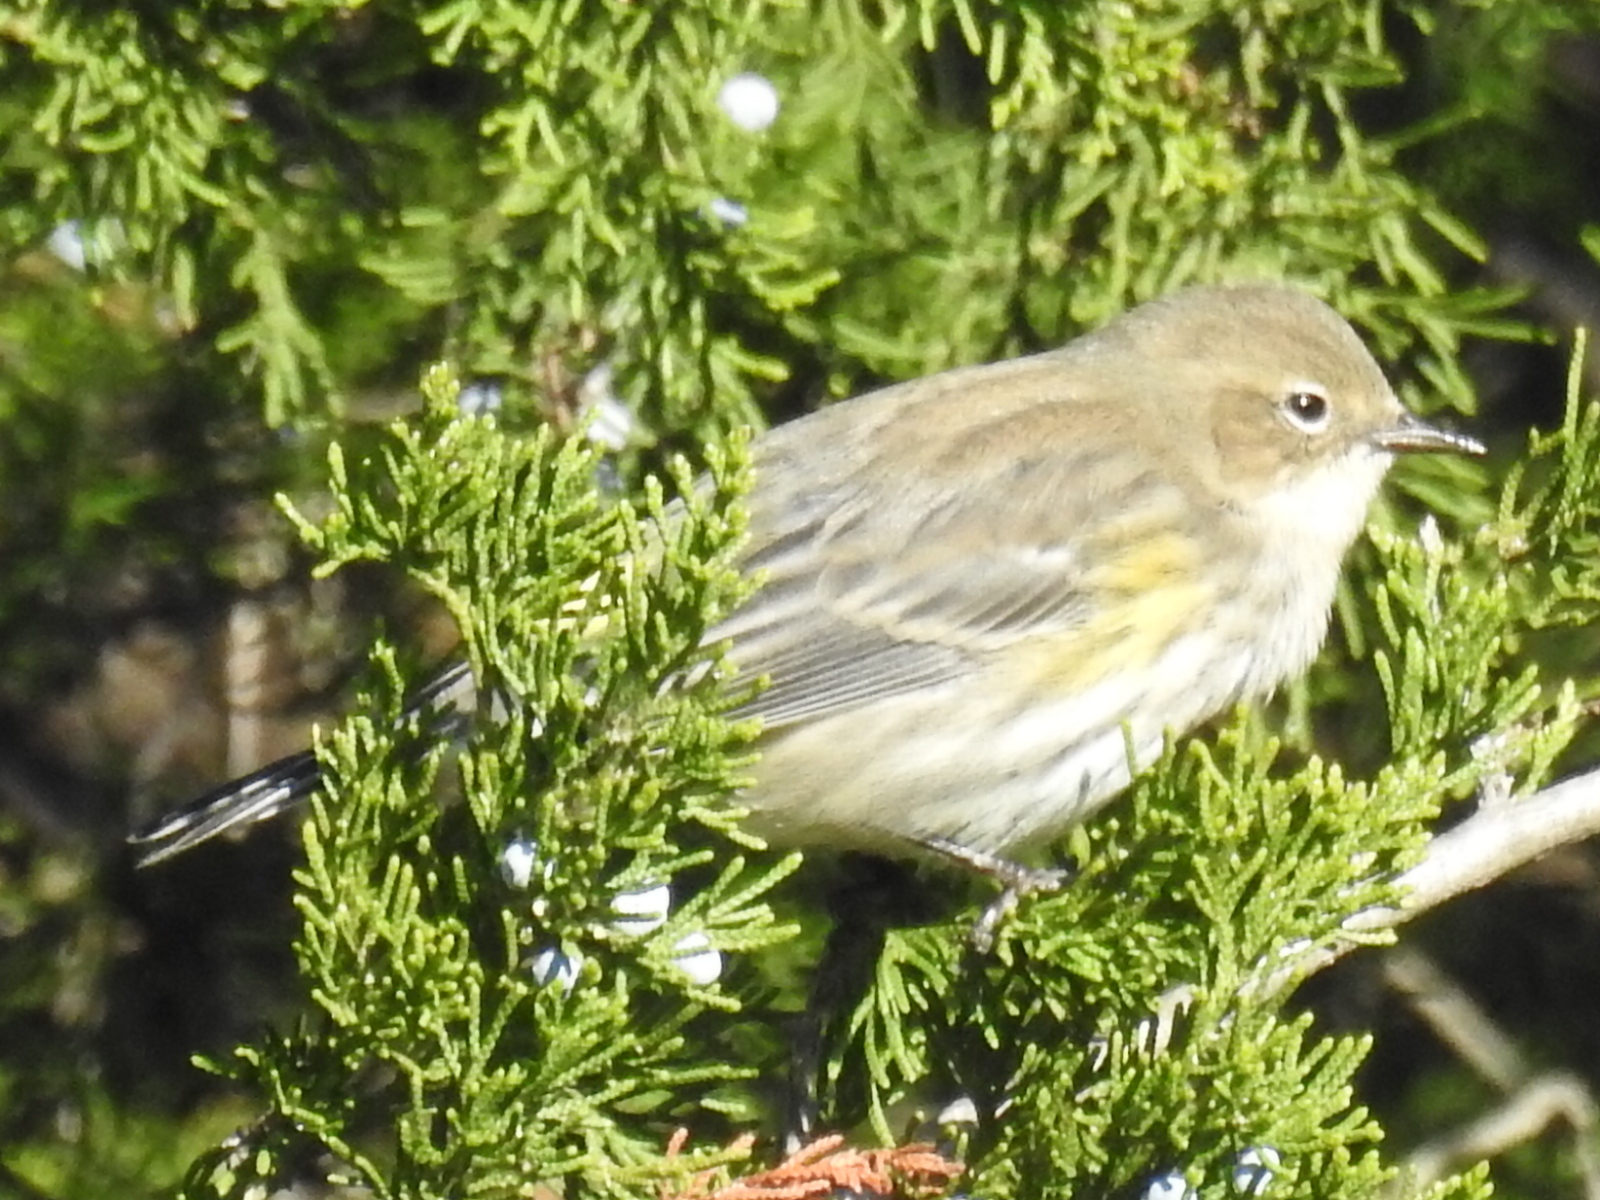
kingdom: Animalia
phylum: Chordata
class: Aves
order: Passeriformes
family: Parulidae
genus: Setophaga
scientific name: Setophaga coronata
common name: Myrtle warbler
